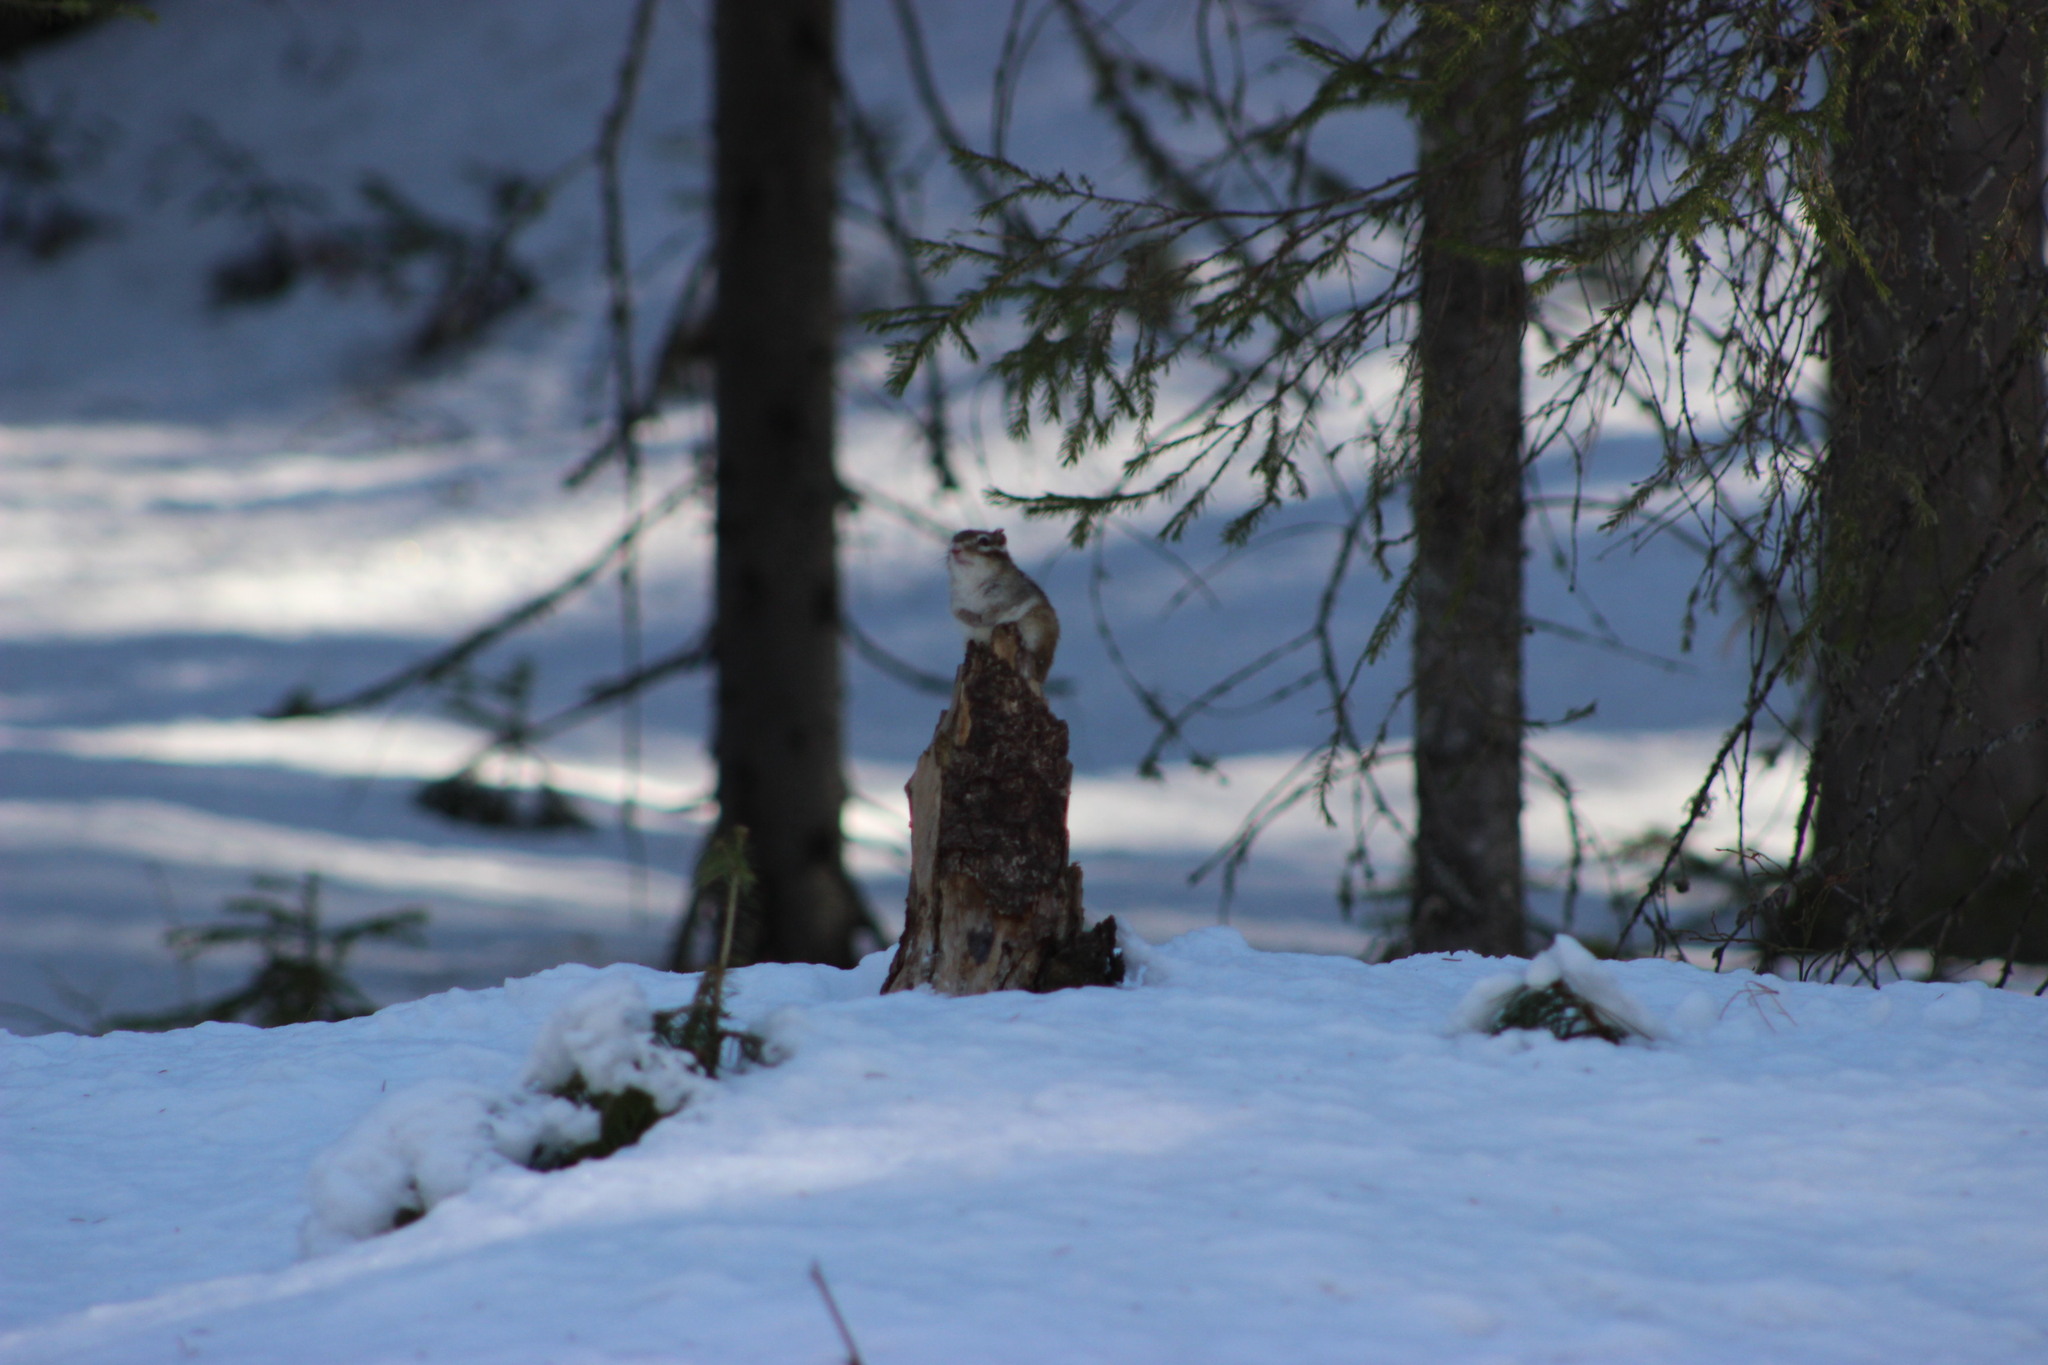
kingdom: Animalia
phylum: Chordata
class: Mammalia
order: Rodentia
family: Sciuridae
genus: Tamias
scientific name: Tamias sibiricus
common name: Siberian chipmunk
